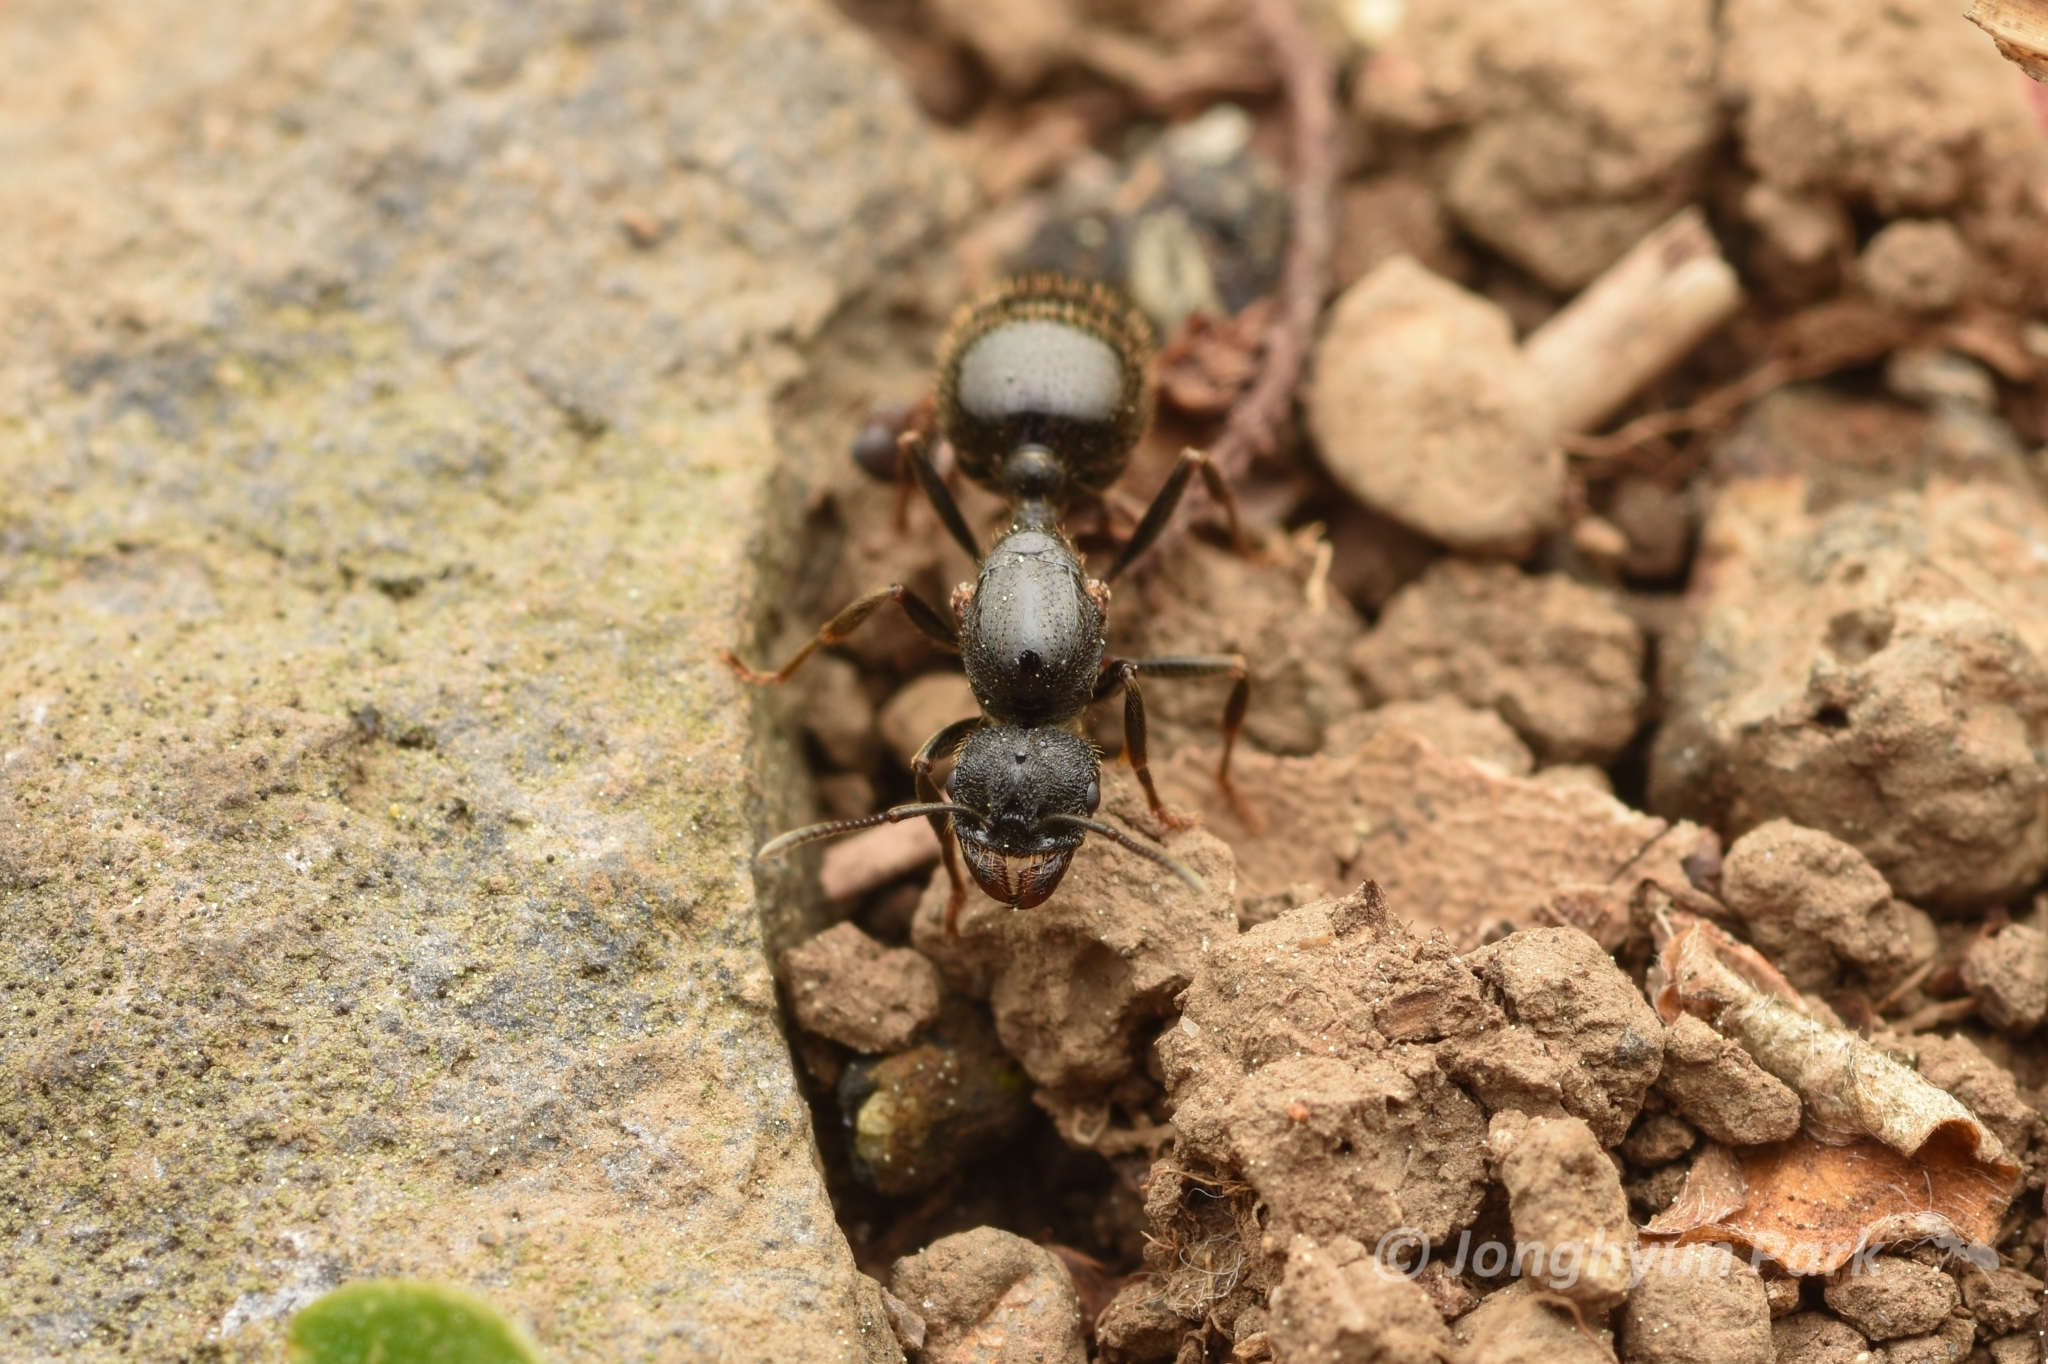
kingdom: Animalia
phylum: Arthropoda
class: Insecta
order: Hymenoptera
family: Formicidae
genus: Messor
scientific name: Messor aciculatus
